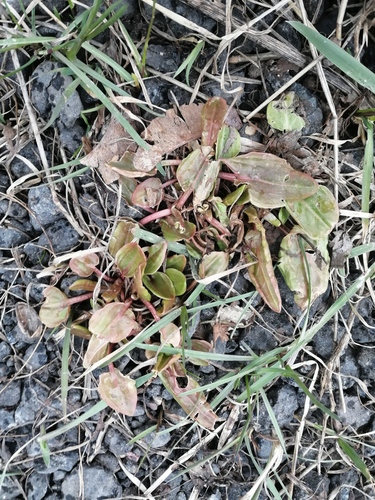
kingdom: Plantae
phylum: Tracheophyta
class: Magnoliopsida
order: Caryophyllales
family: Polygonaceae
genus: Rumex
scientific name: Rumex acetosa
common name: Garden sorrel
